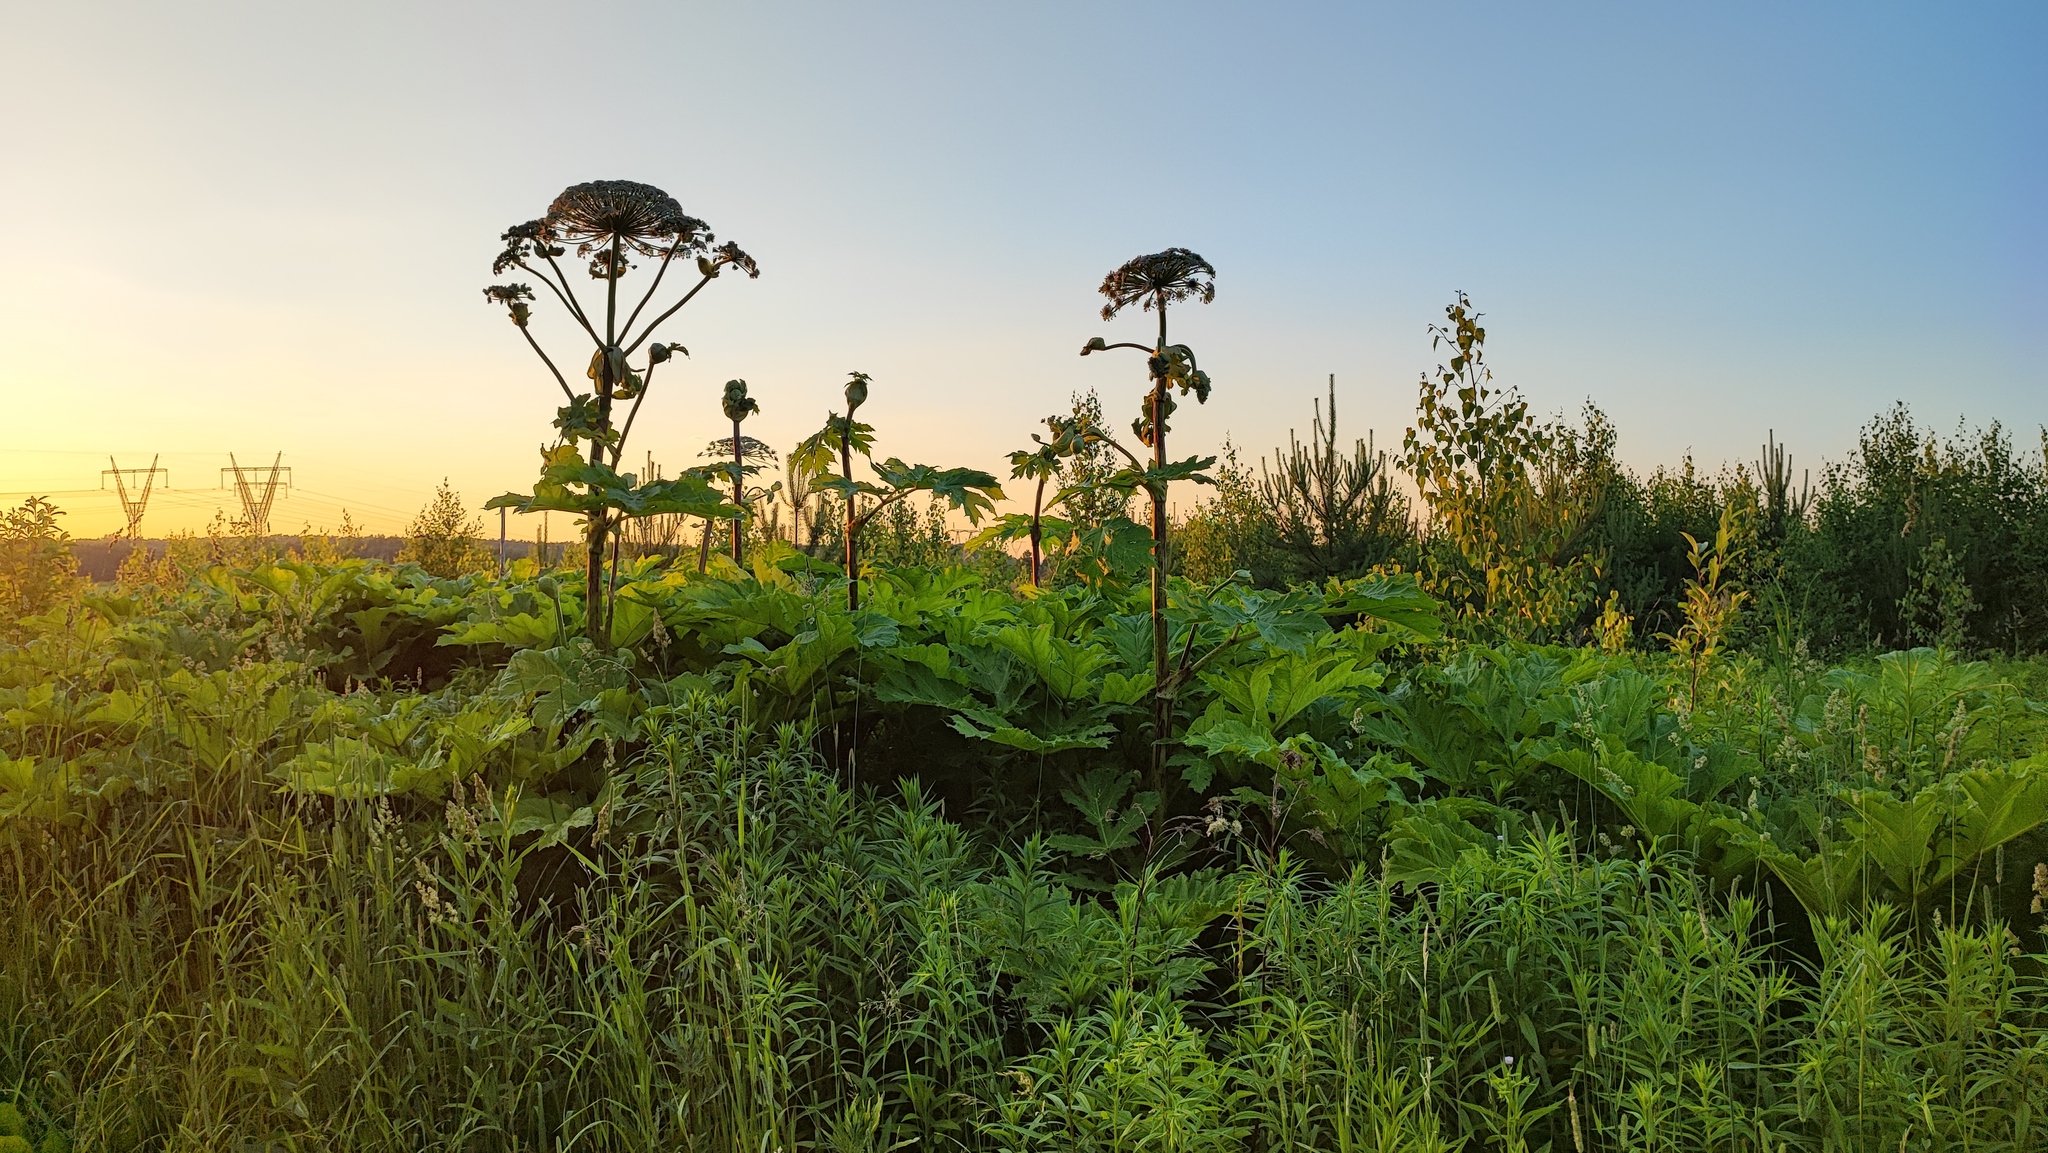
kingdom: Plantae
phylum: Tracheophyta
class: Magnoliopsida
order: Apiales
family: Apiaceae
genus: Heracleum
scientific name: Heracleum sosnowskyi
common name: Sosnowsky's hogweed
